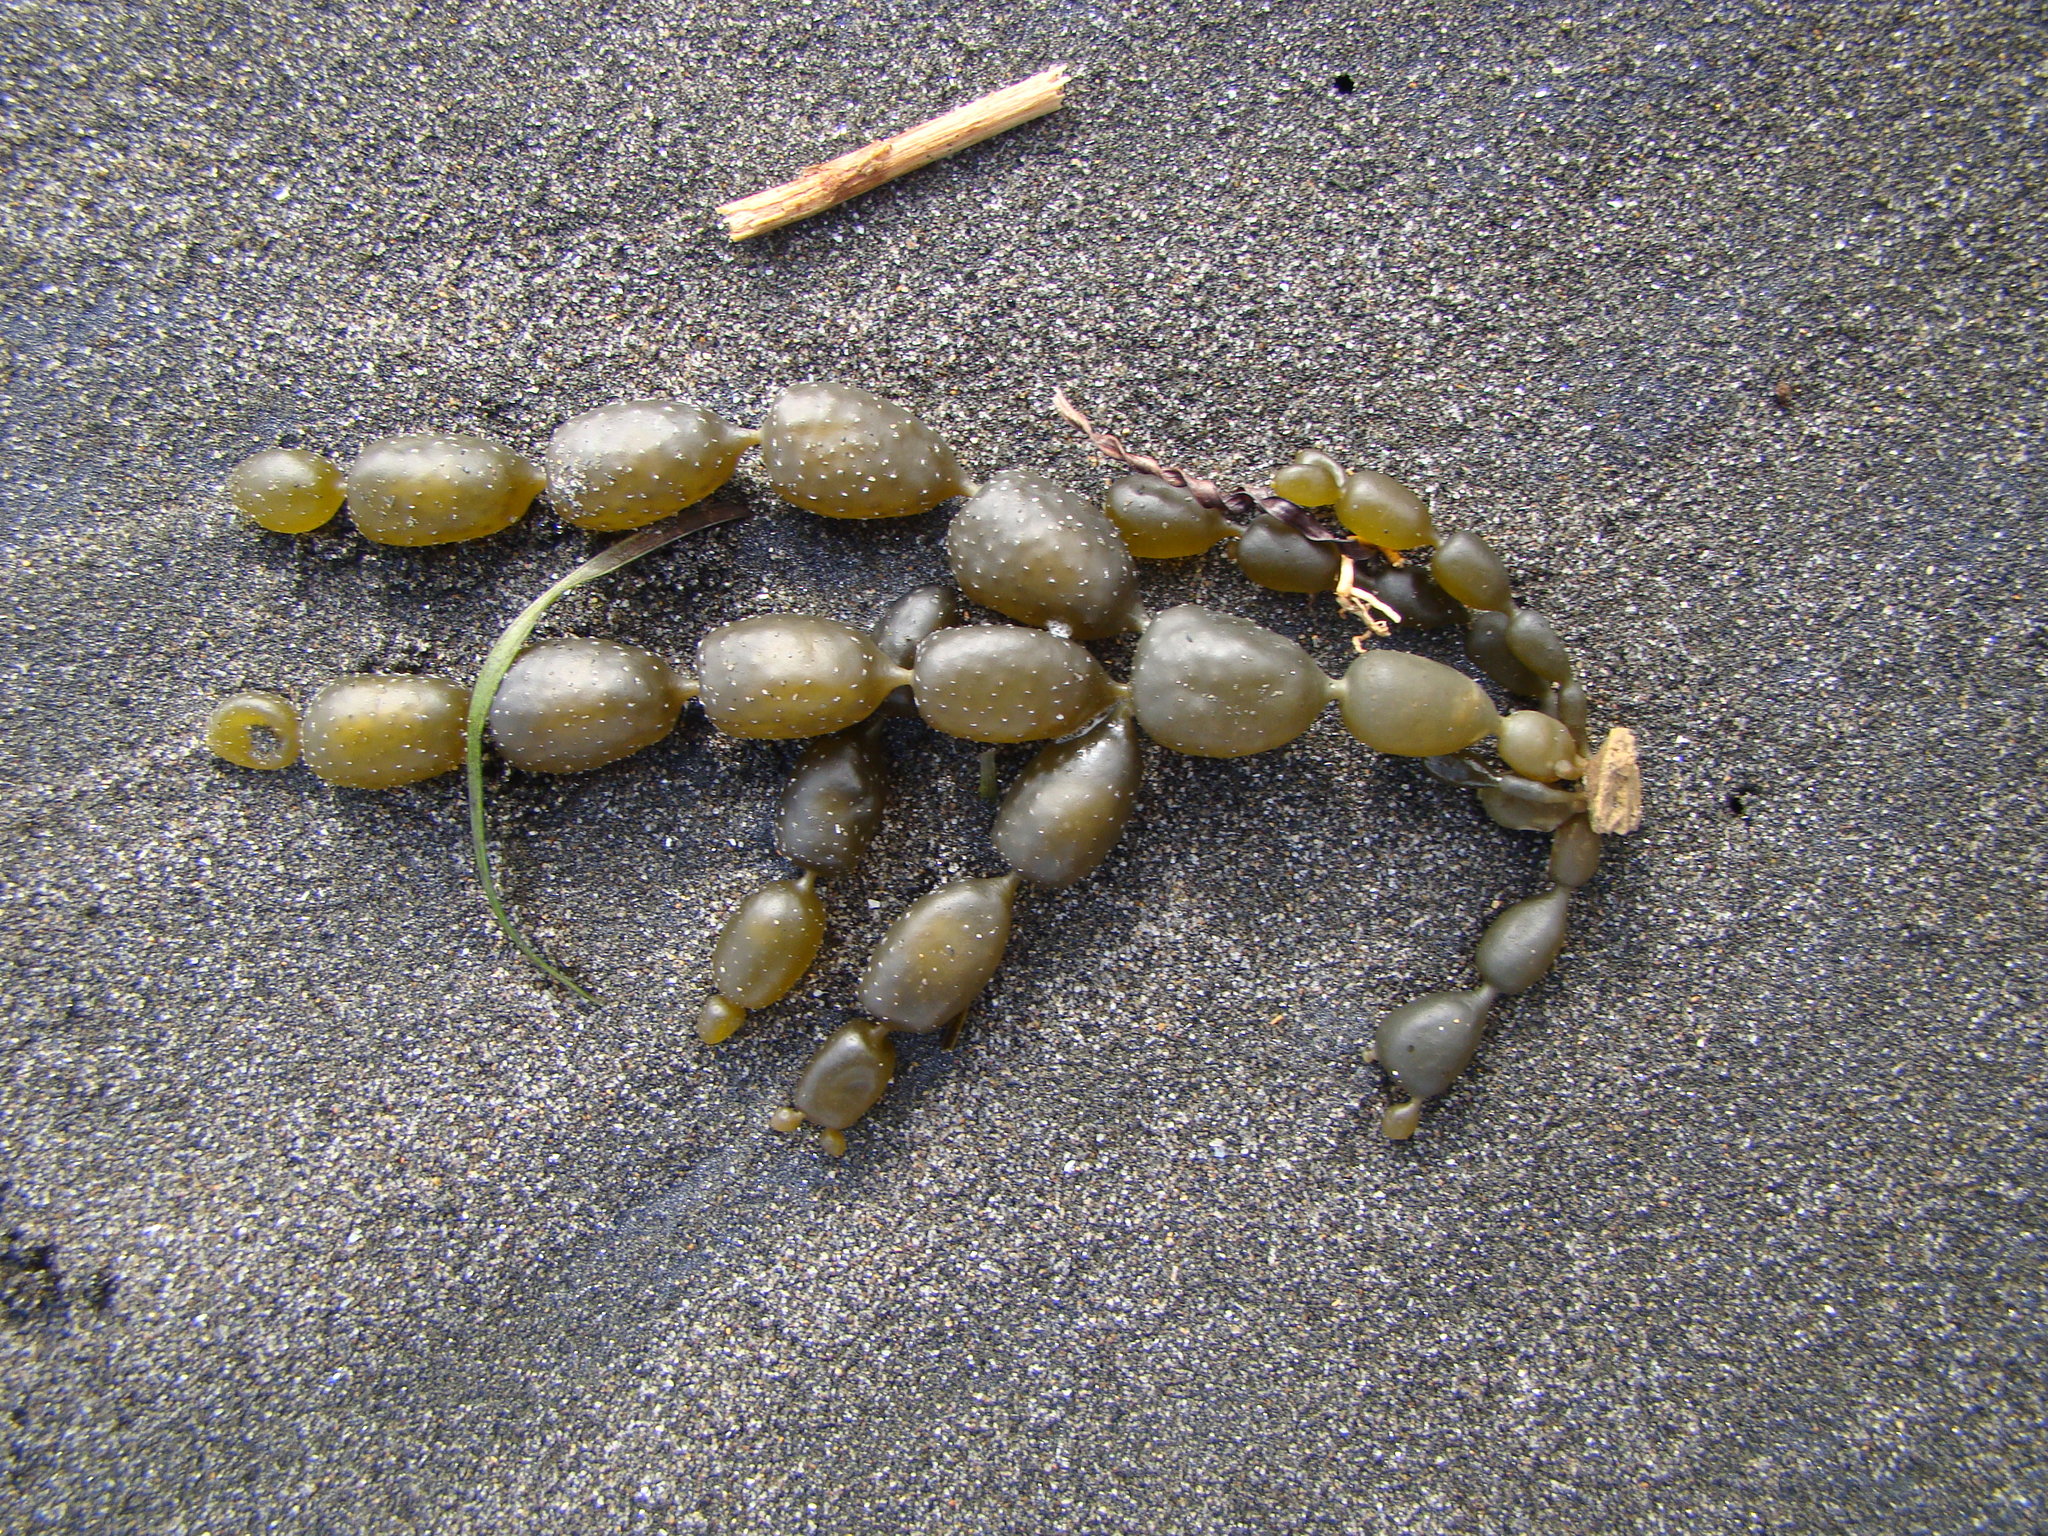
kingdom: Chromista
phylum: Ochrophyta
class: Phaeophyceae
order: Fucales
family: Hormosiraceae
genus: Hormosira
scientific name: Hormosira banksii
